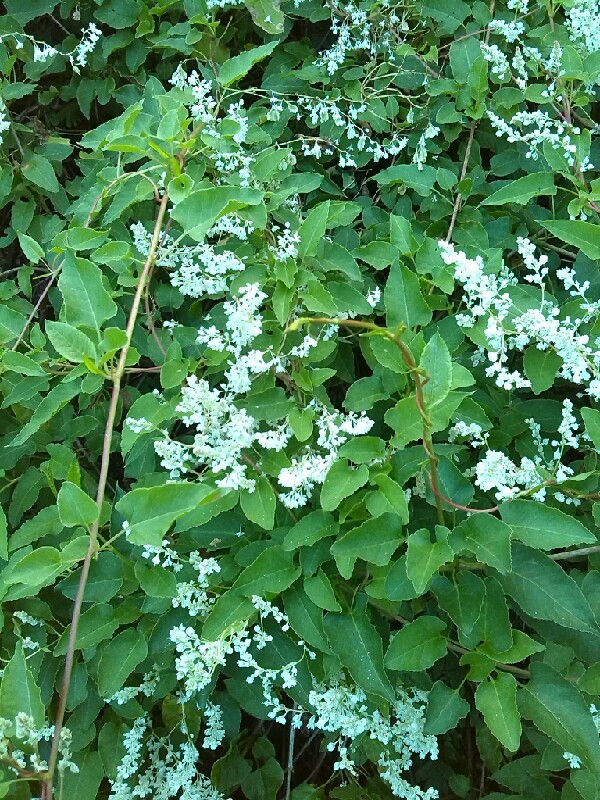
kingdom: Plantae
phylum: Tracheophyta
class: Magnoliopsida
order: Caryophyllales
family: Polygonaceae
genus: Fallopia
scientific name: Fallopia baldschuanica
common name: Russian-vine
